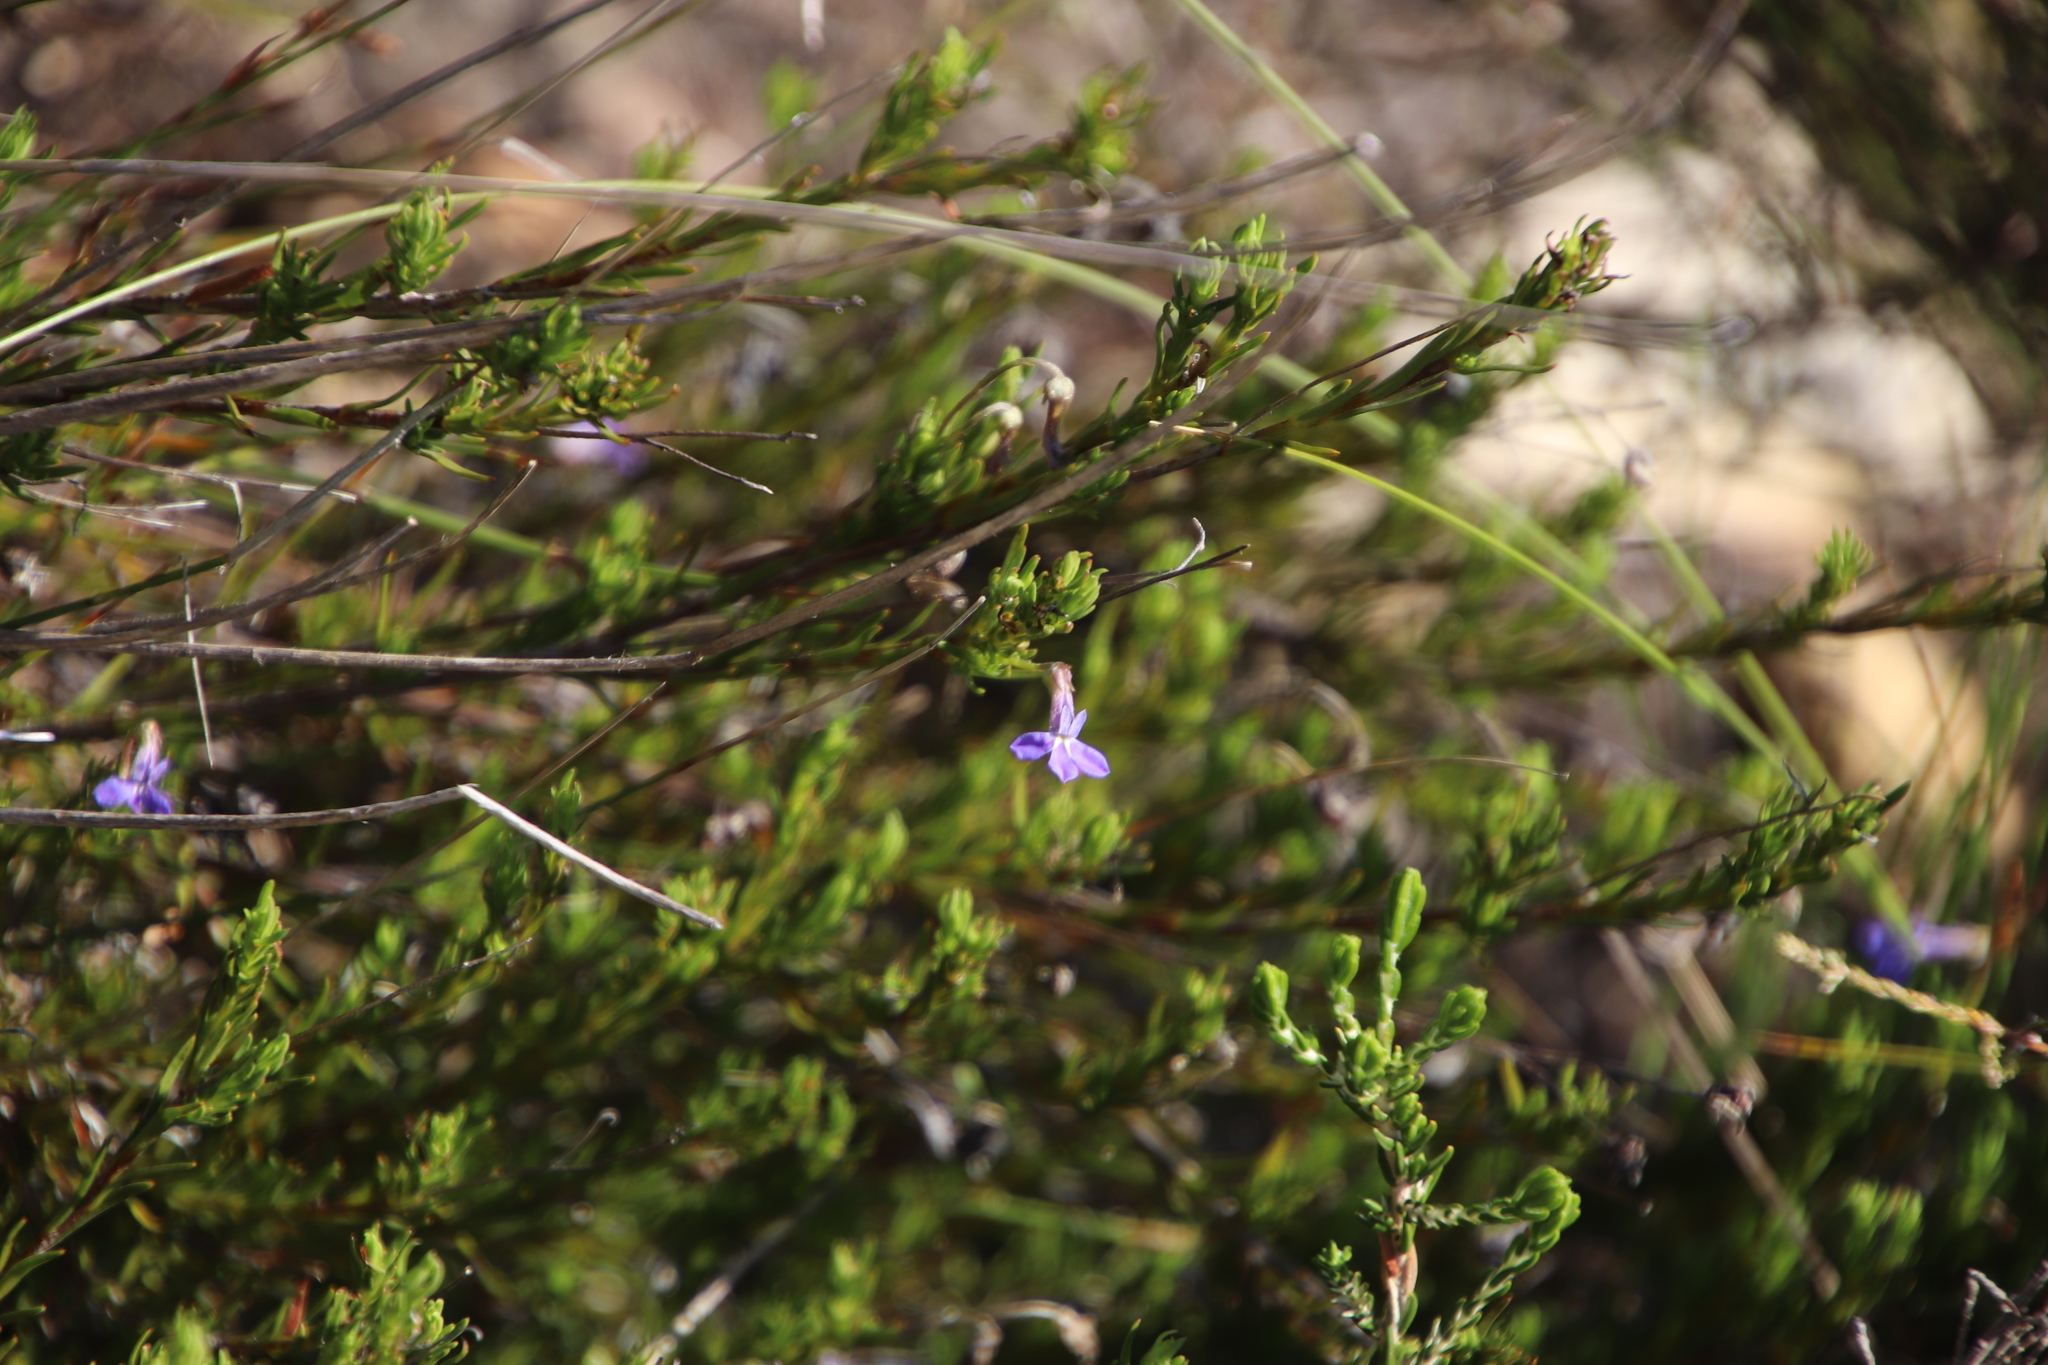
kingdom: Plantae
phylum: Tracheophyta
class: Magnoliopsida
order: Asterales
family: Campanulaceae
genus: Lobelia
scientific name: Lobelia pinifolia
